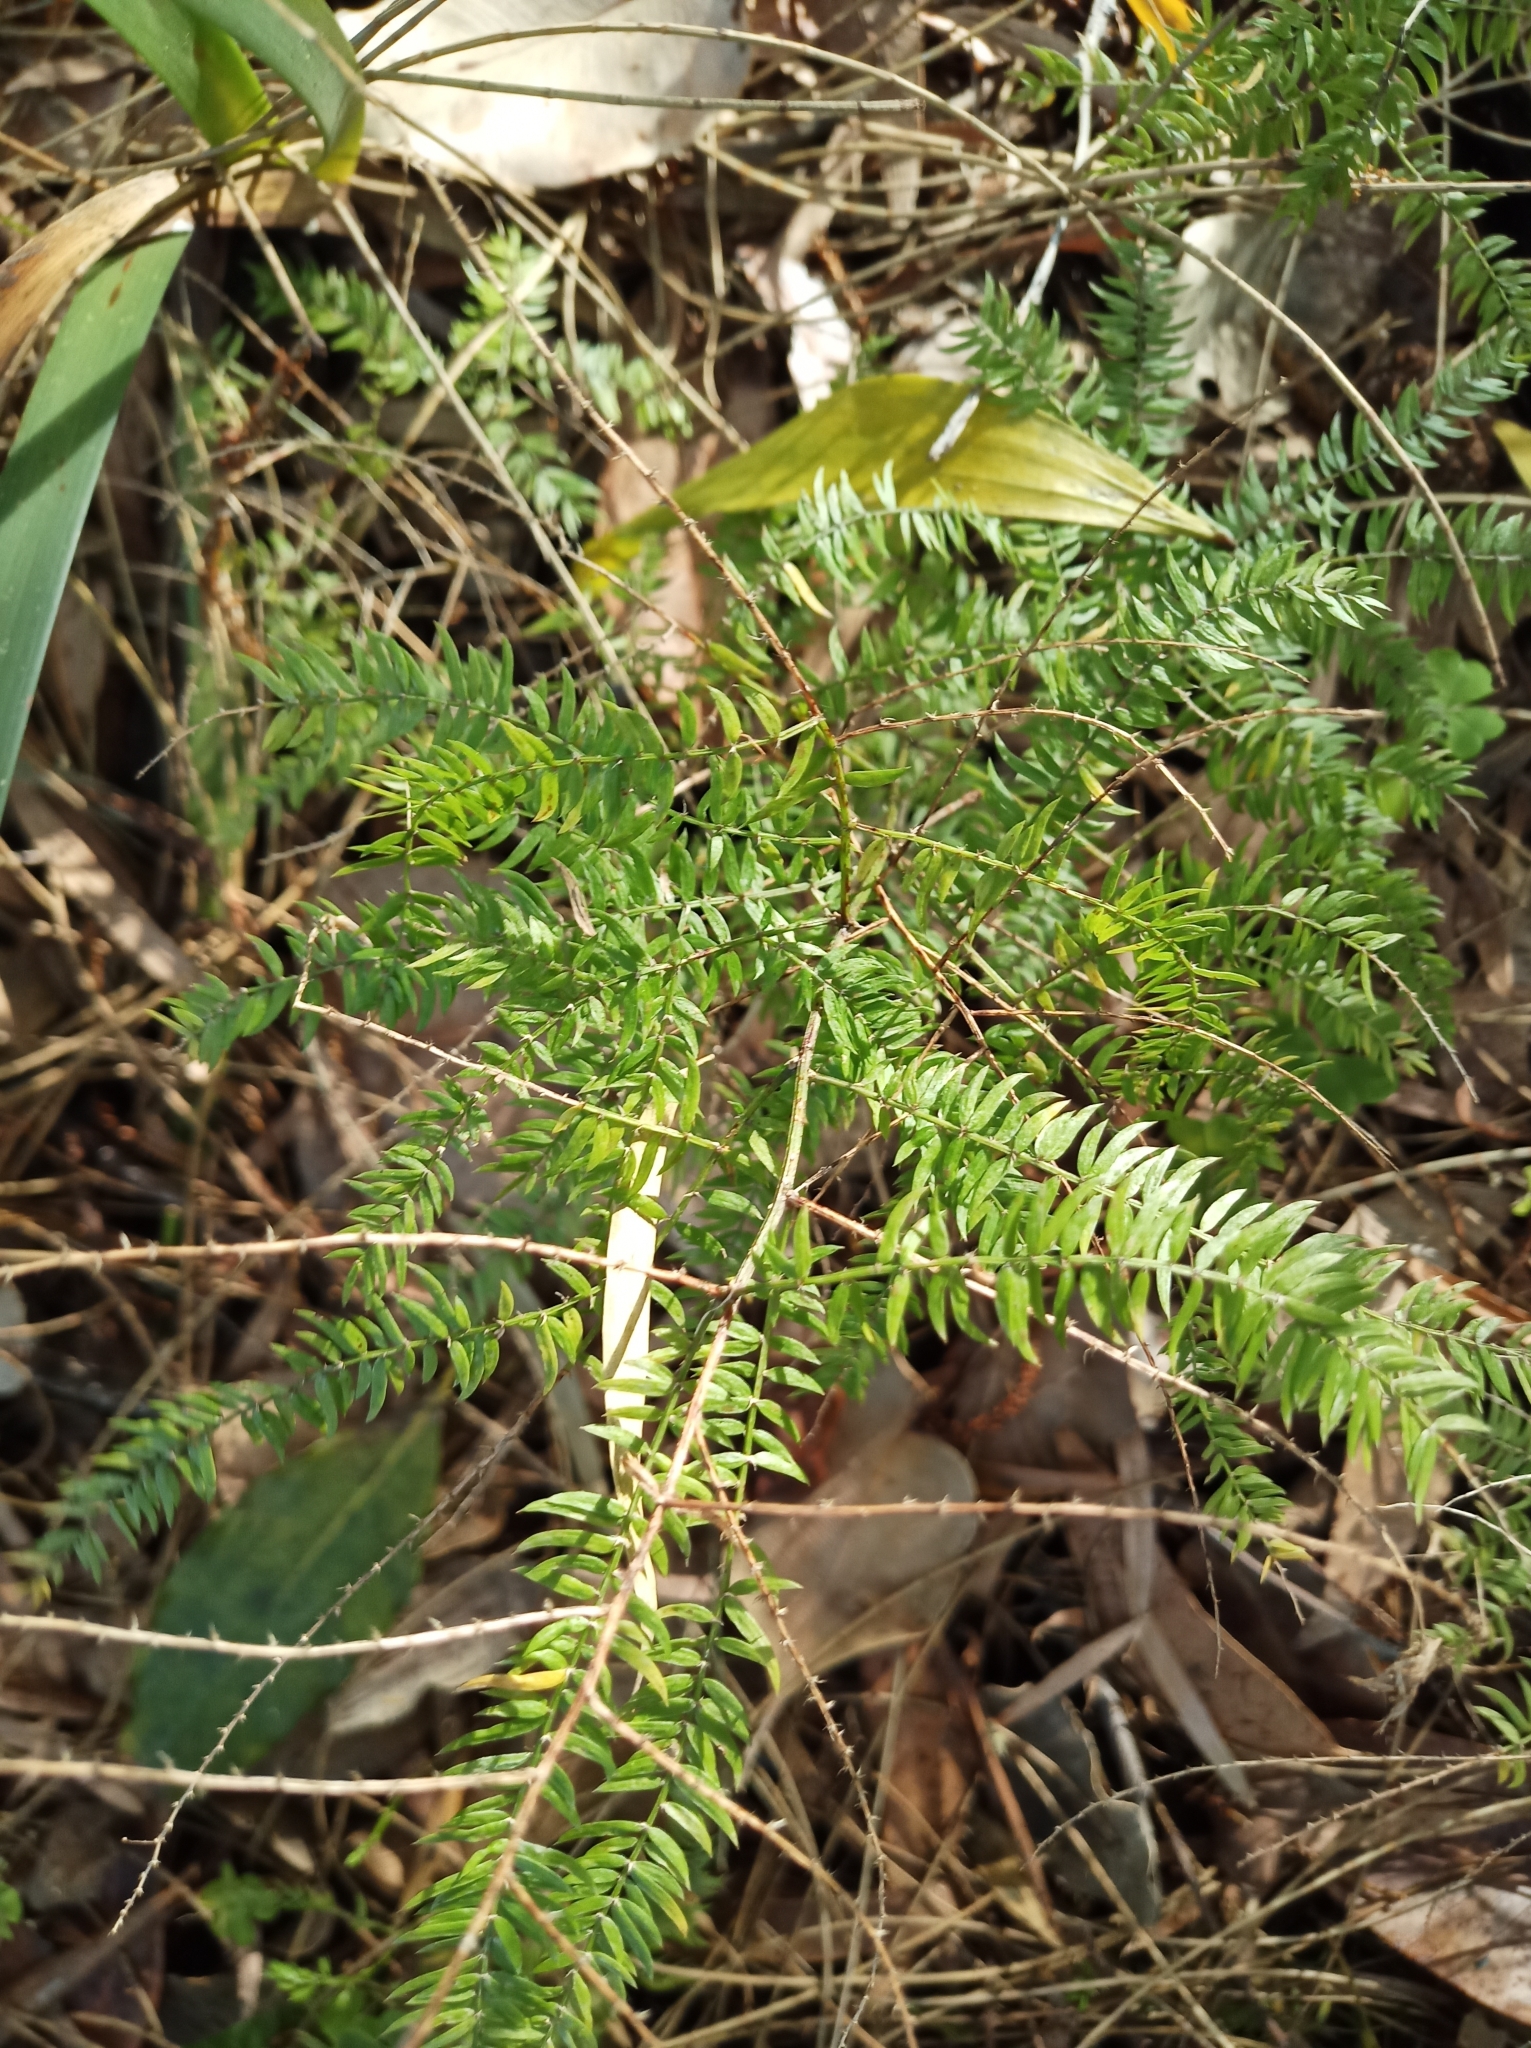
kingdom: Plantae
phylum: Tracheophyta
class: Liliopsida
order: Asparagales
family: Asparagaceae
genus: Asparagus
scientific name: Asparagus scandens
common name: Asparagus-fern
